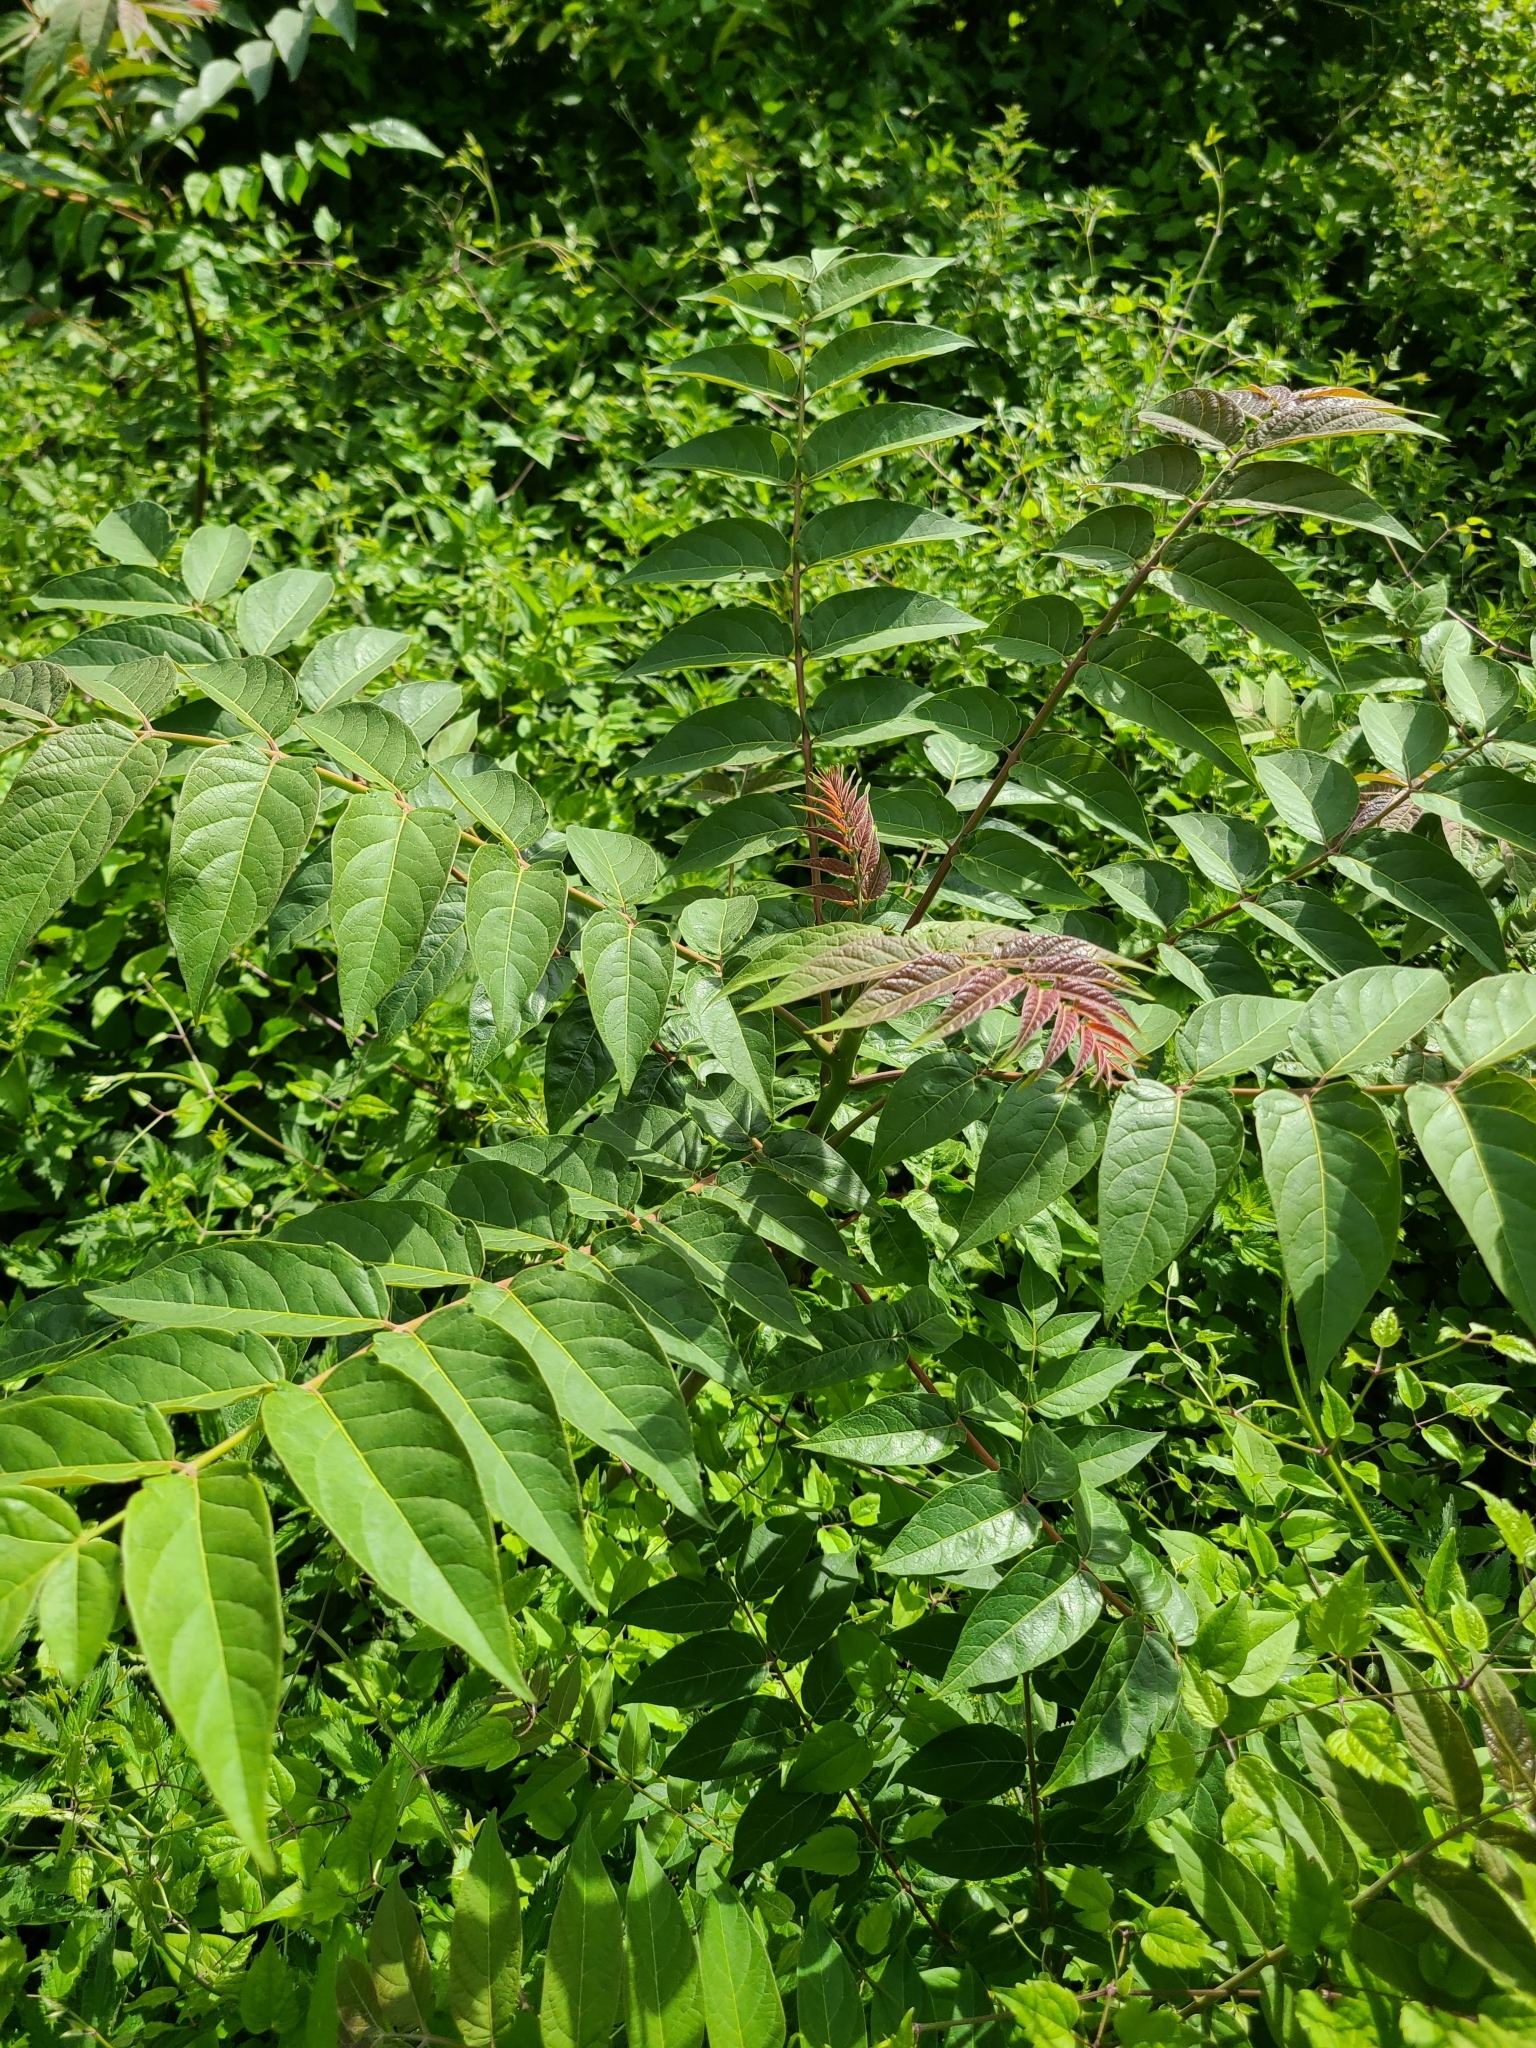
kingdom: Plantae
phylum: Tracheophyta
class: Magnoliopsida
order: Sapindales
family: Simaroubaceae
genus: Ailanthus
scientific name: Ailanthus altissima
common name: Tree-of-heaven
